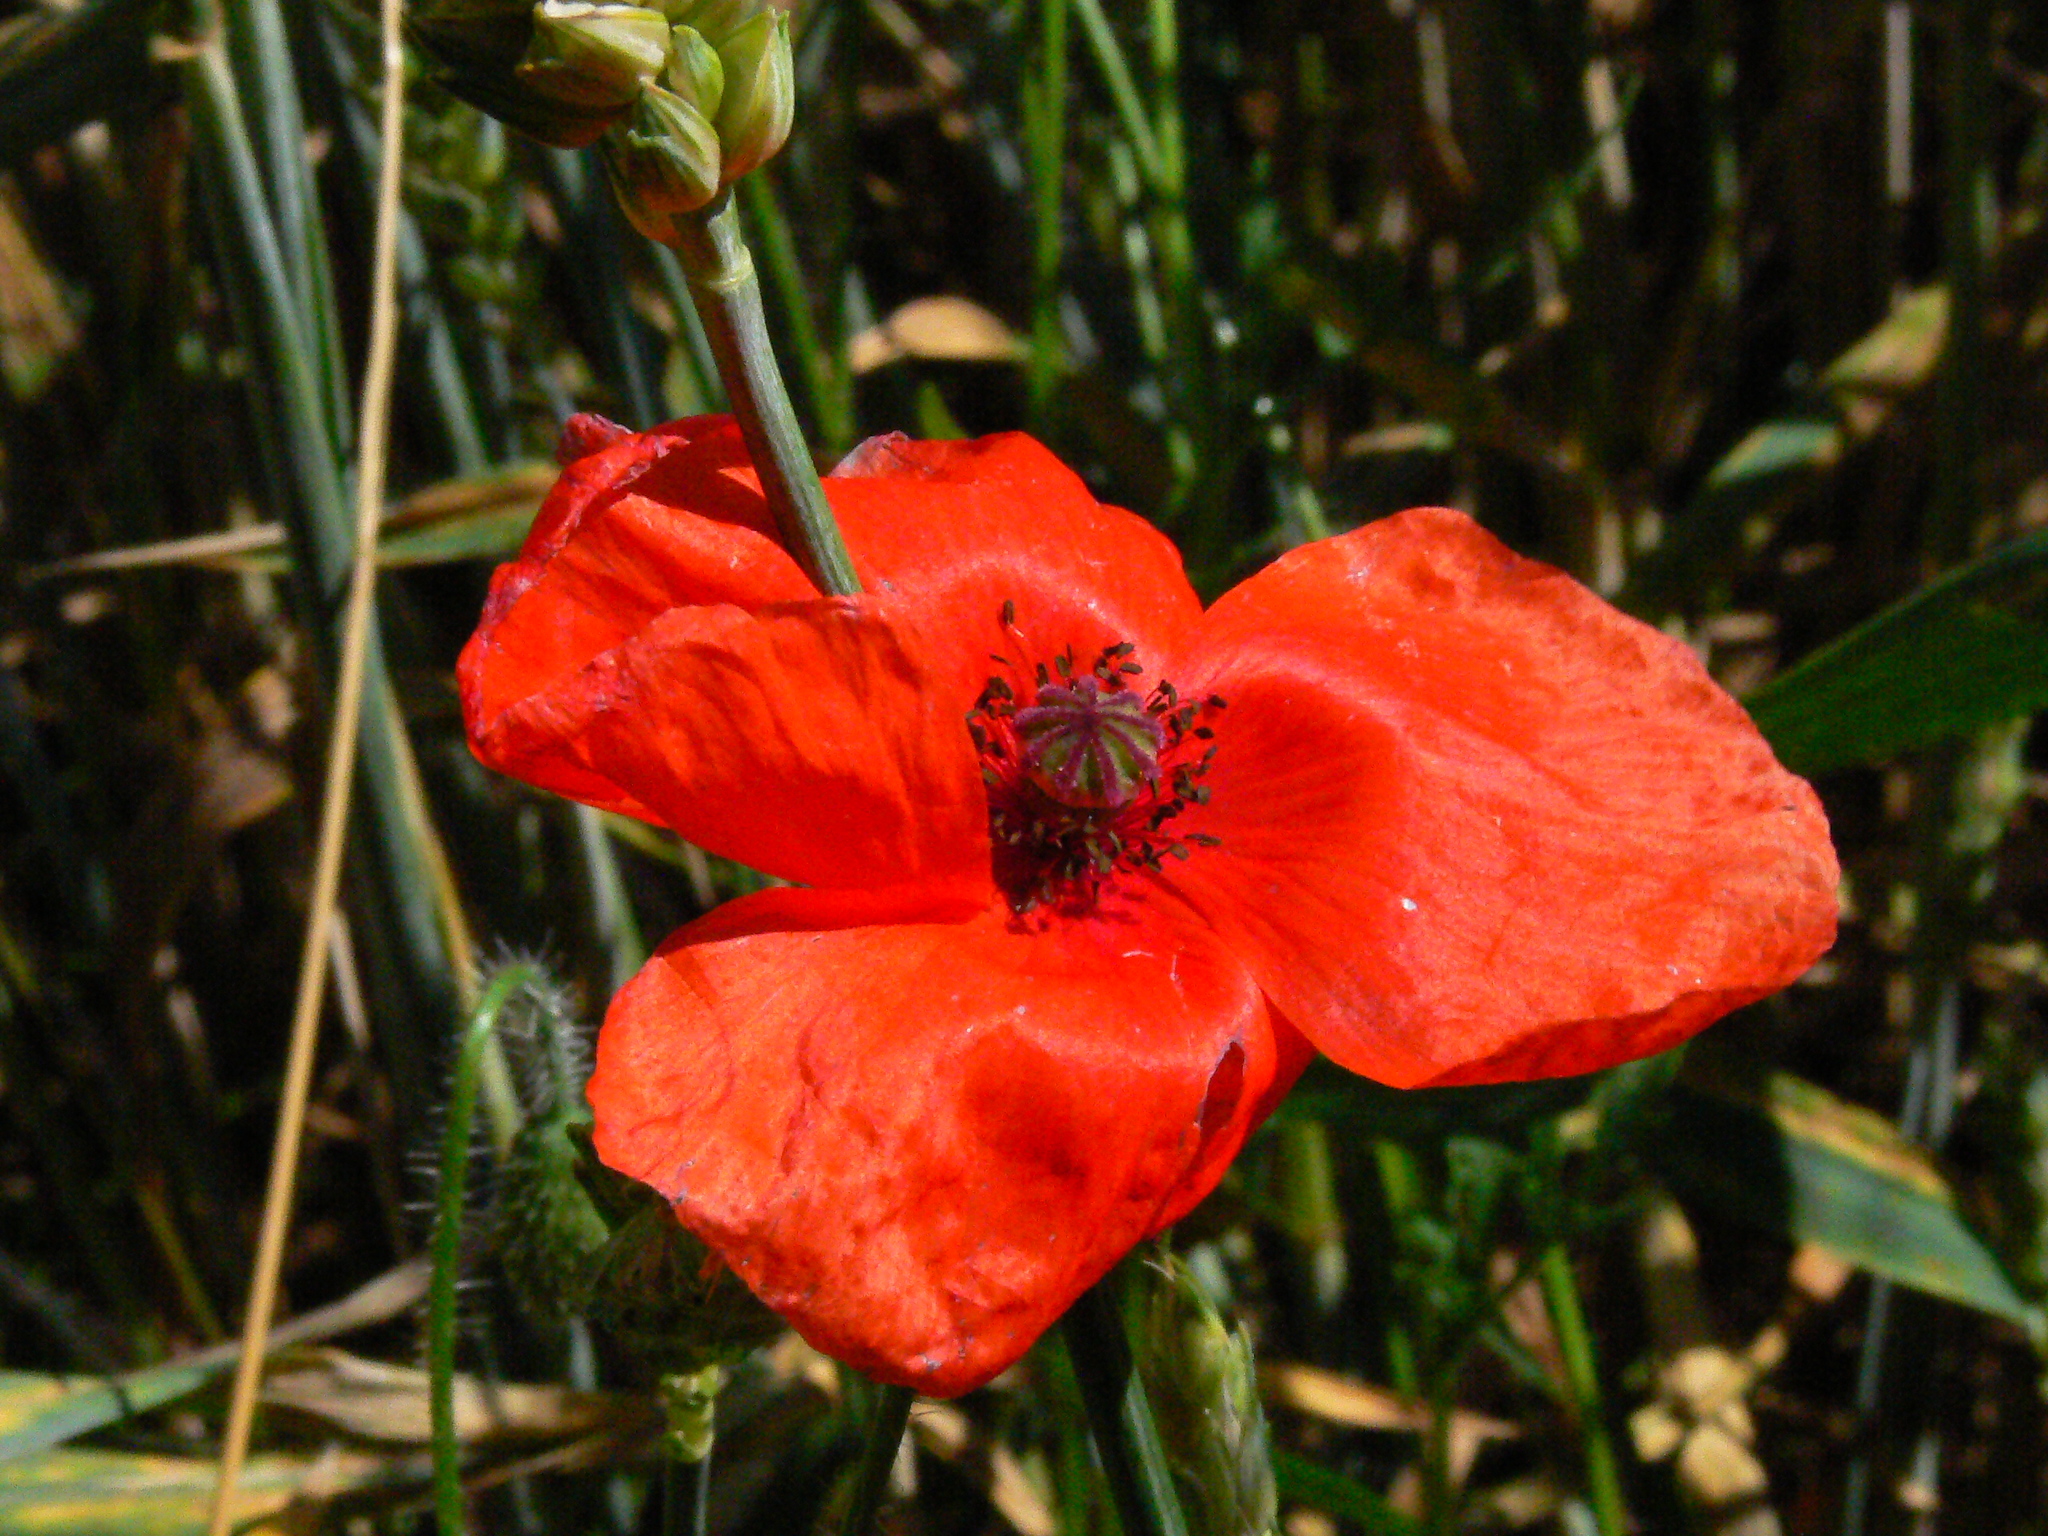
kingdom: Plantae
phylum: Tracheophyta
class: Magnoliopsida
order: Ranunculales
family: Papaveraceae
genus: Papaver
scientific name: Papaver rhoeas
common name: Corn poppy
